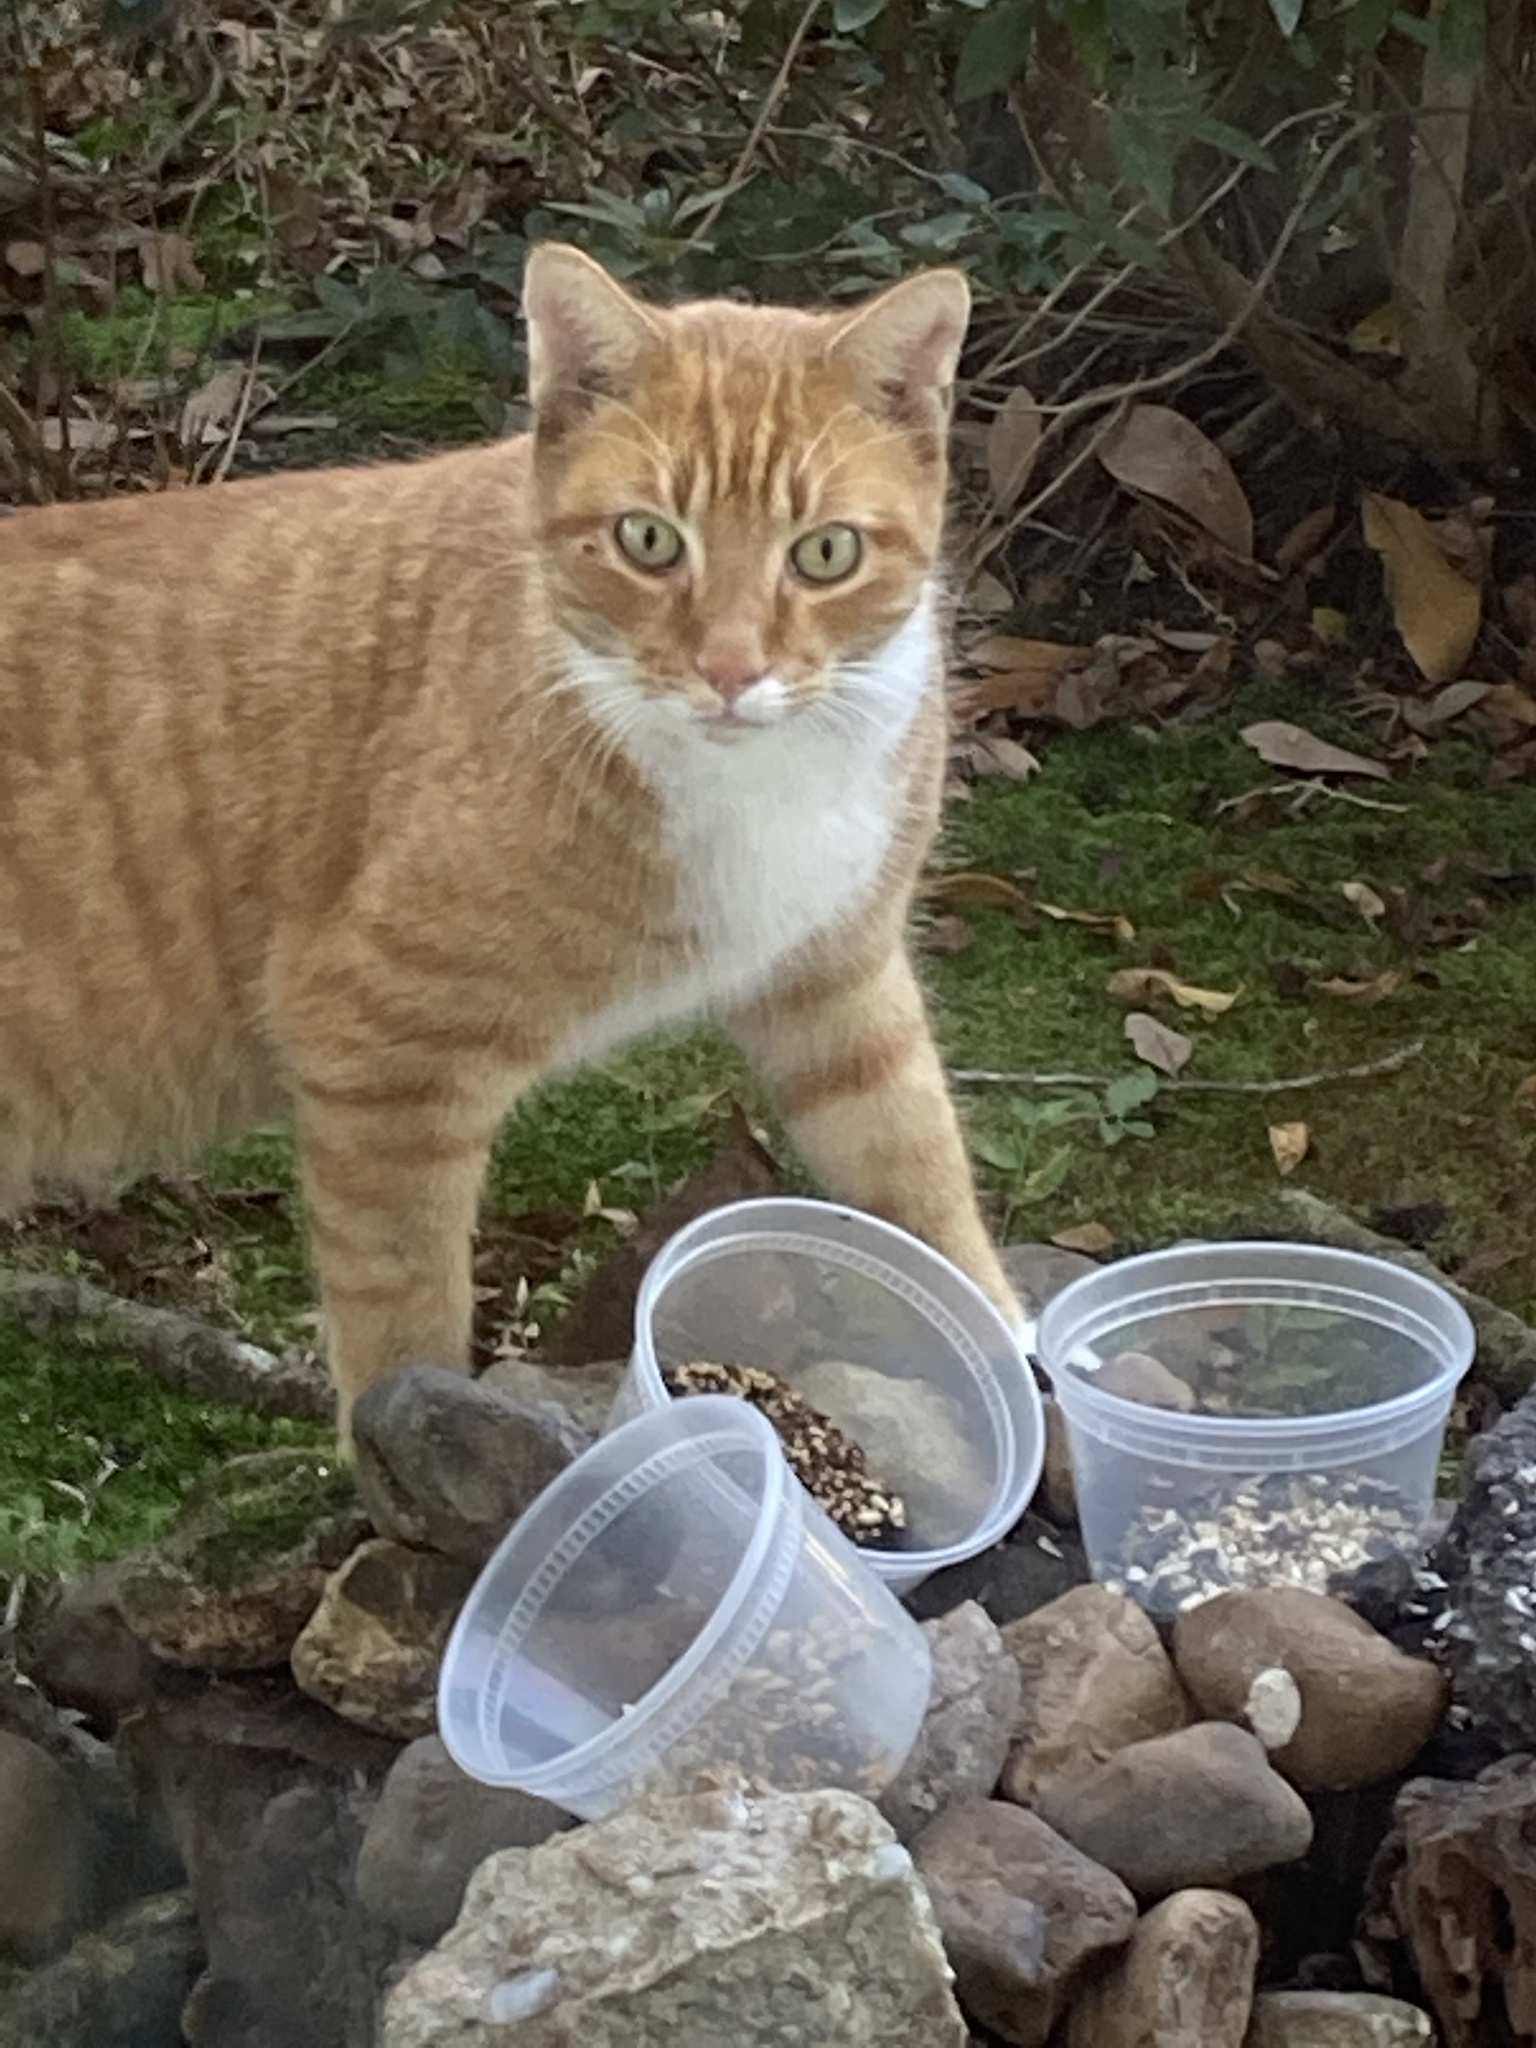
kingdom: Animalia
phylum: Chordata
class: Mammalia
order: Carnivora
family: Felidae
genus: Felis
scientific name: Felis catus
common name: Domestic cat
